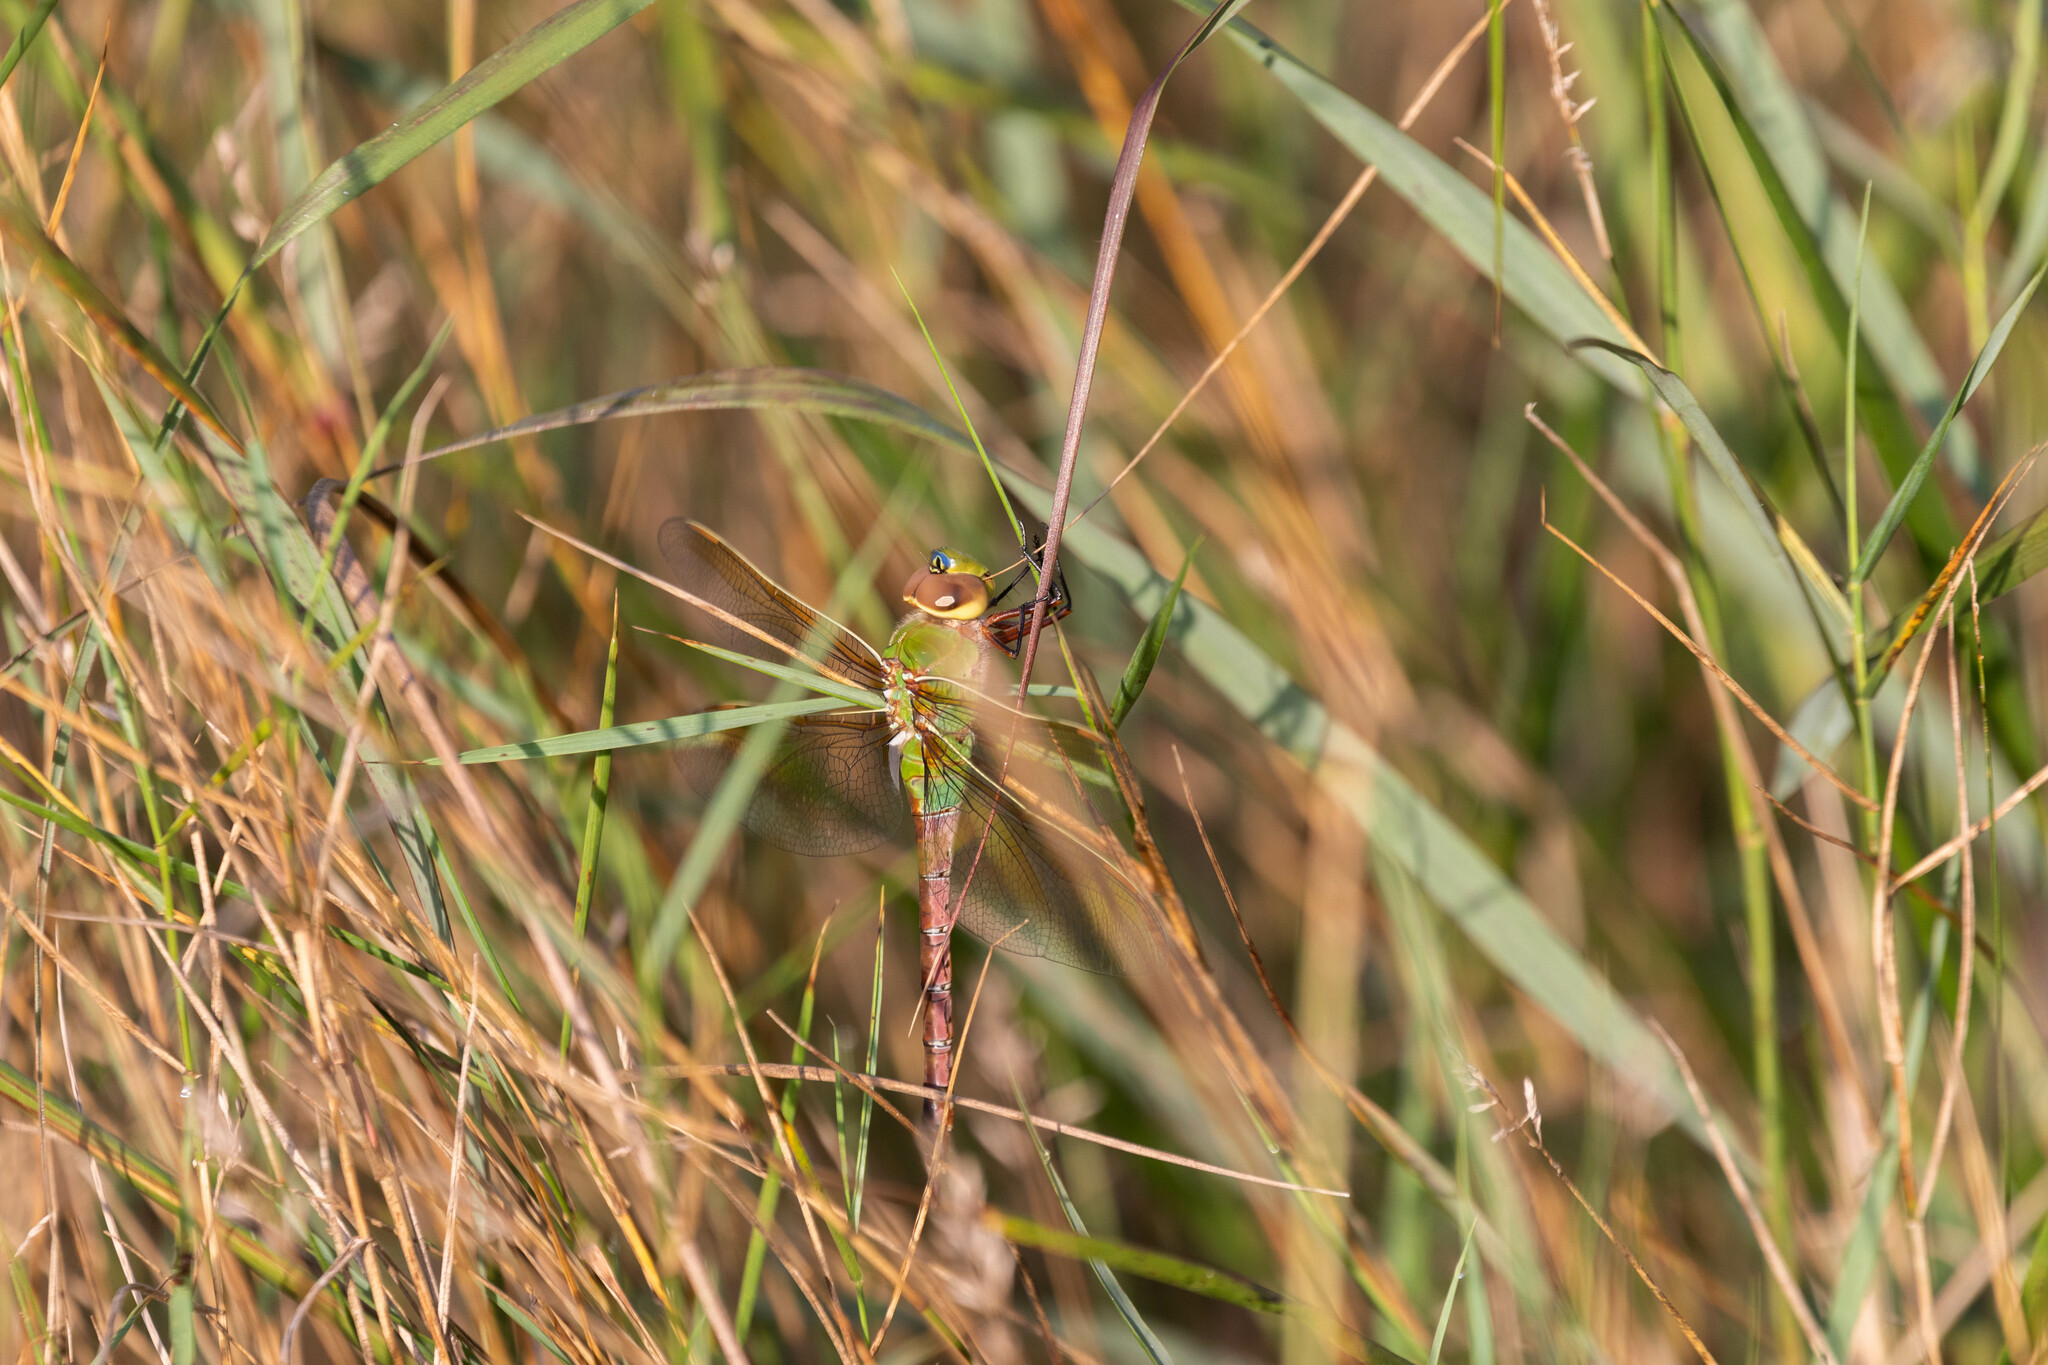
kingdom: Animalia
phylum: Arthropoda
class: Insecta
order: Odonata
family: Aeshnidae
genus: Anax
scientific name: Anax junius
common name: Common green darner
